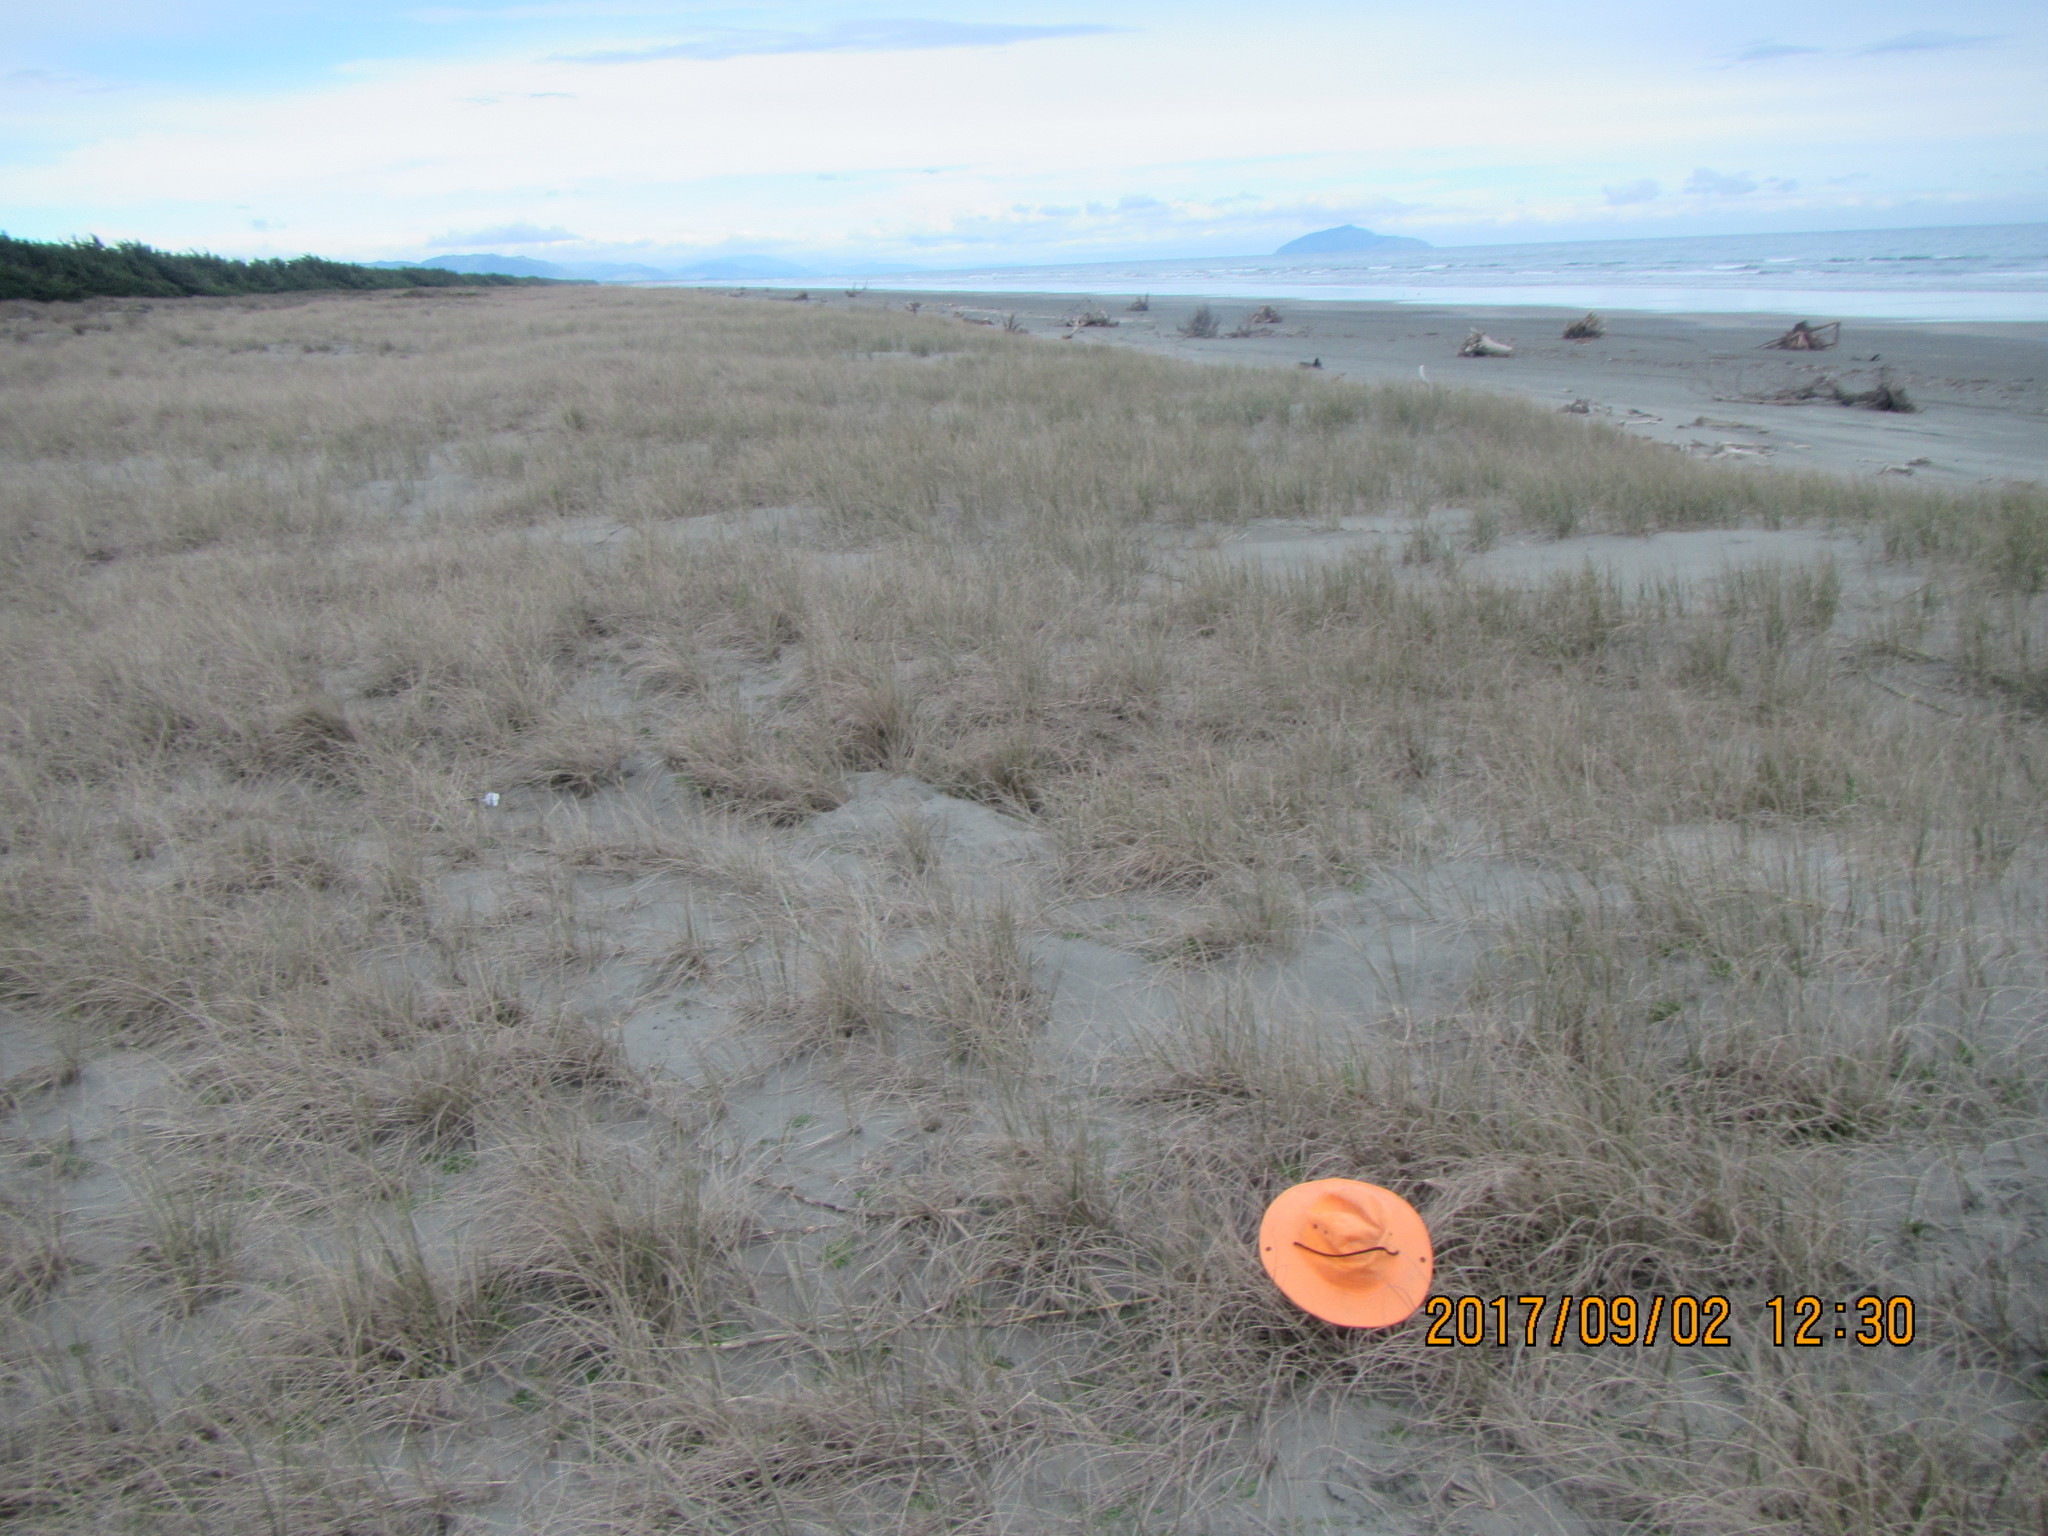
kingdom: Animalia
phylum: Arthropoda
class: Arachnida
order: Araneae
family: Theridiidae
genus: Latrodectus
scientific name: Latrodectus katipo
